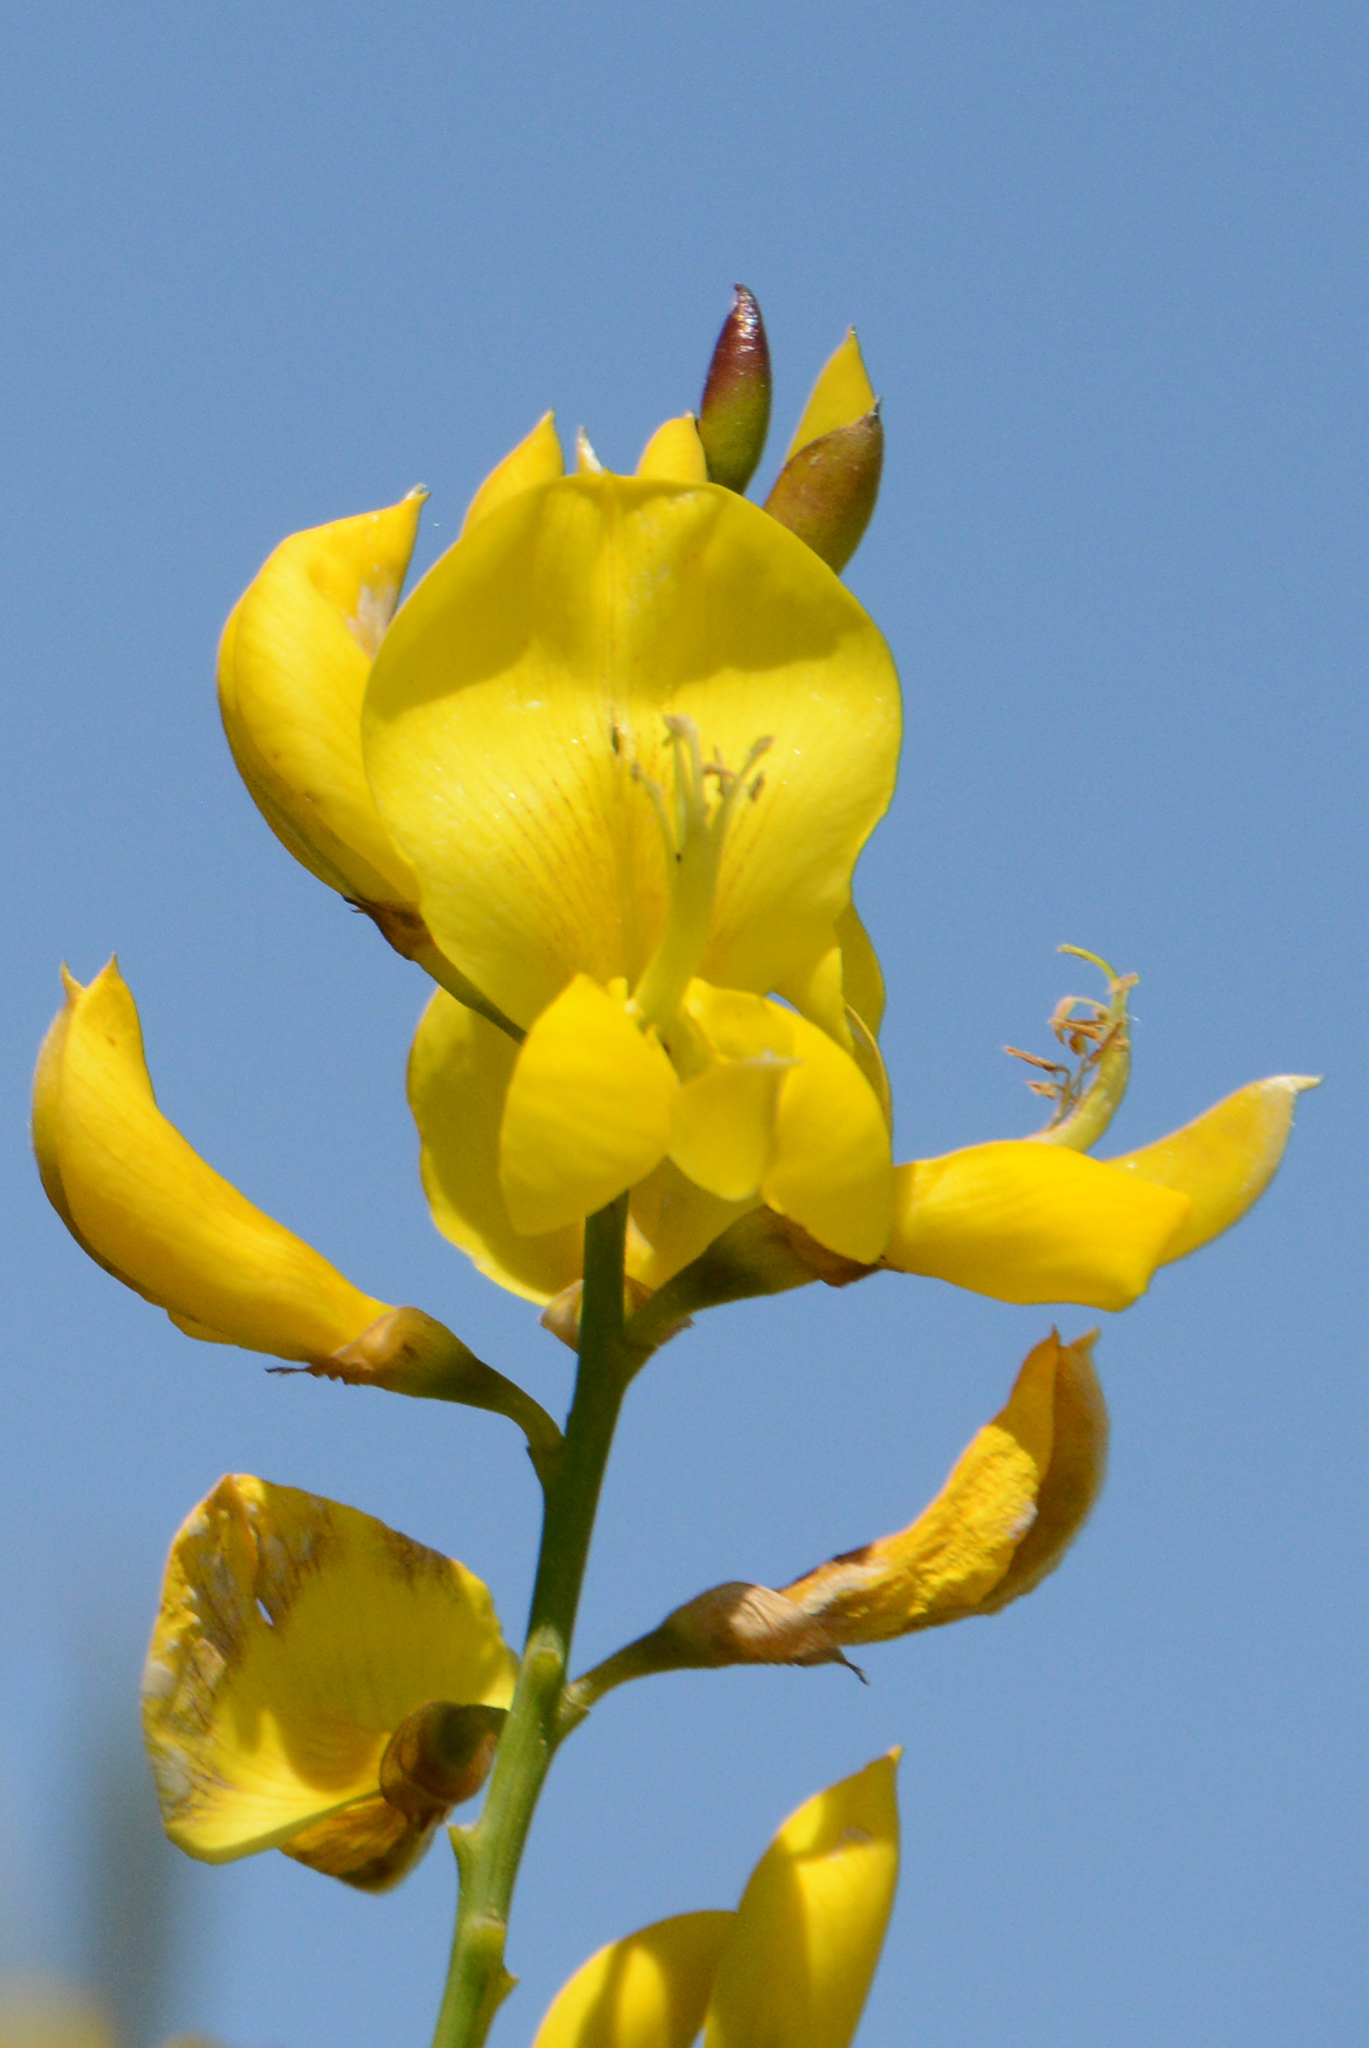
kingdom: Plantae
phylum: Tracheophyta
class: Magnoliopsida
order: Fabales
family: Fabaceae
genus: Spartium
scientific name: Spartium junceum
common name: Spanish broom
